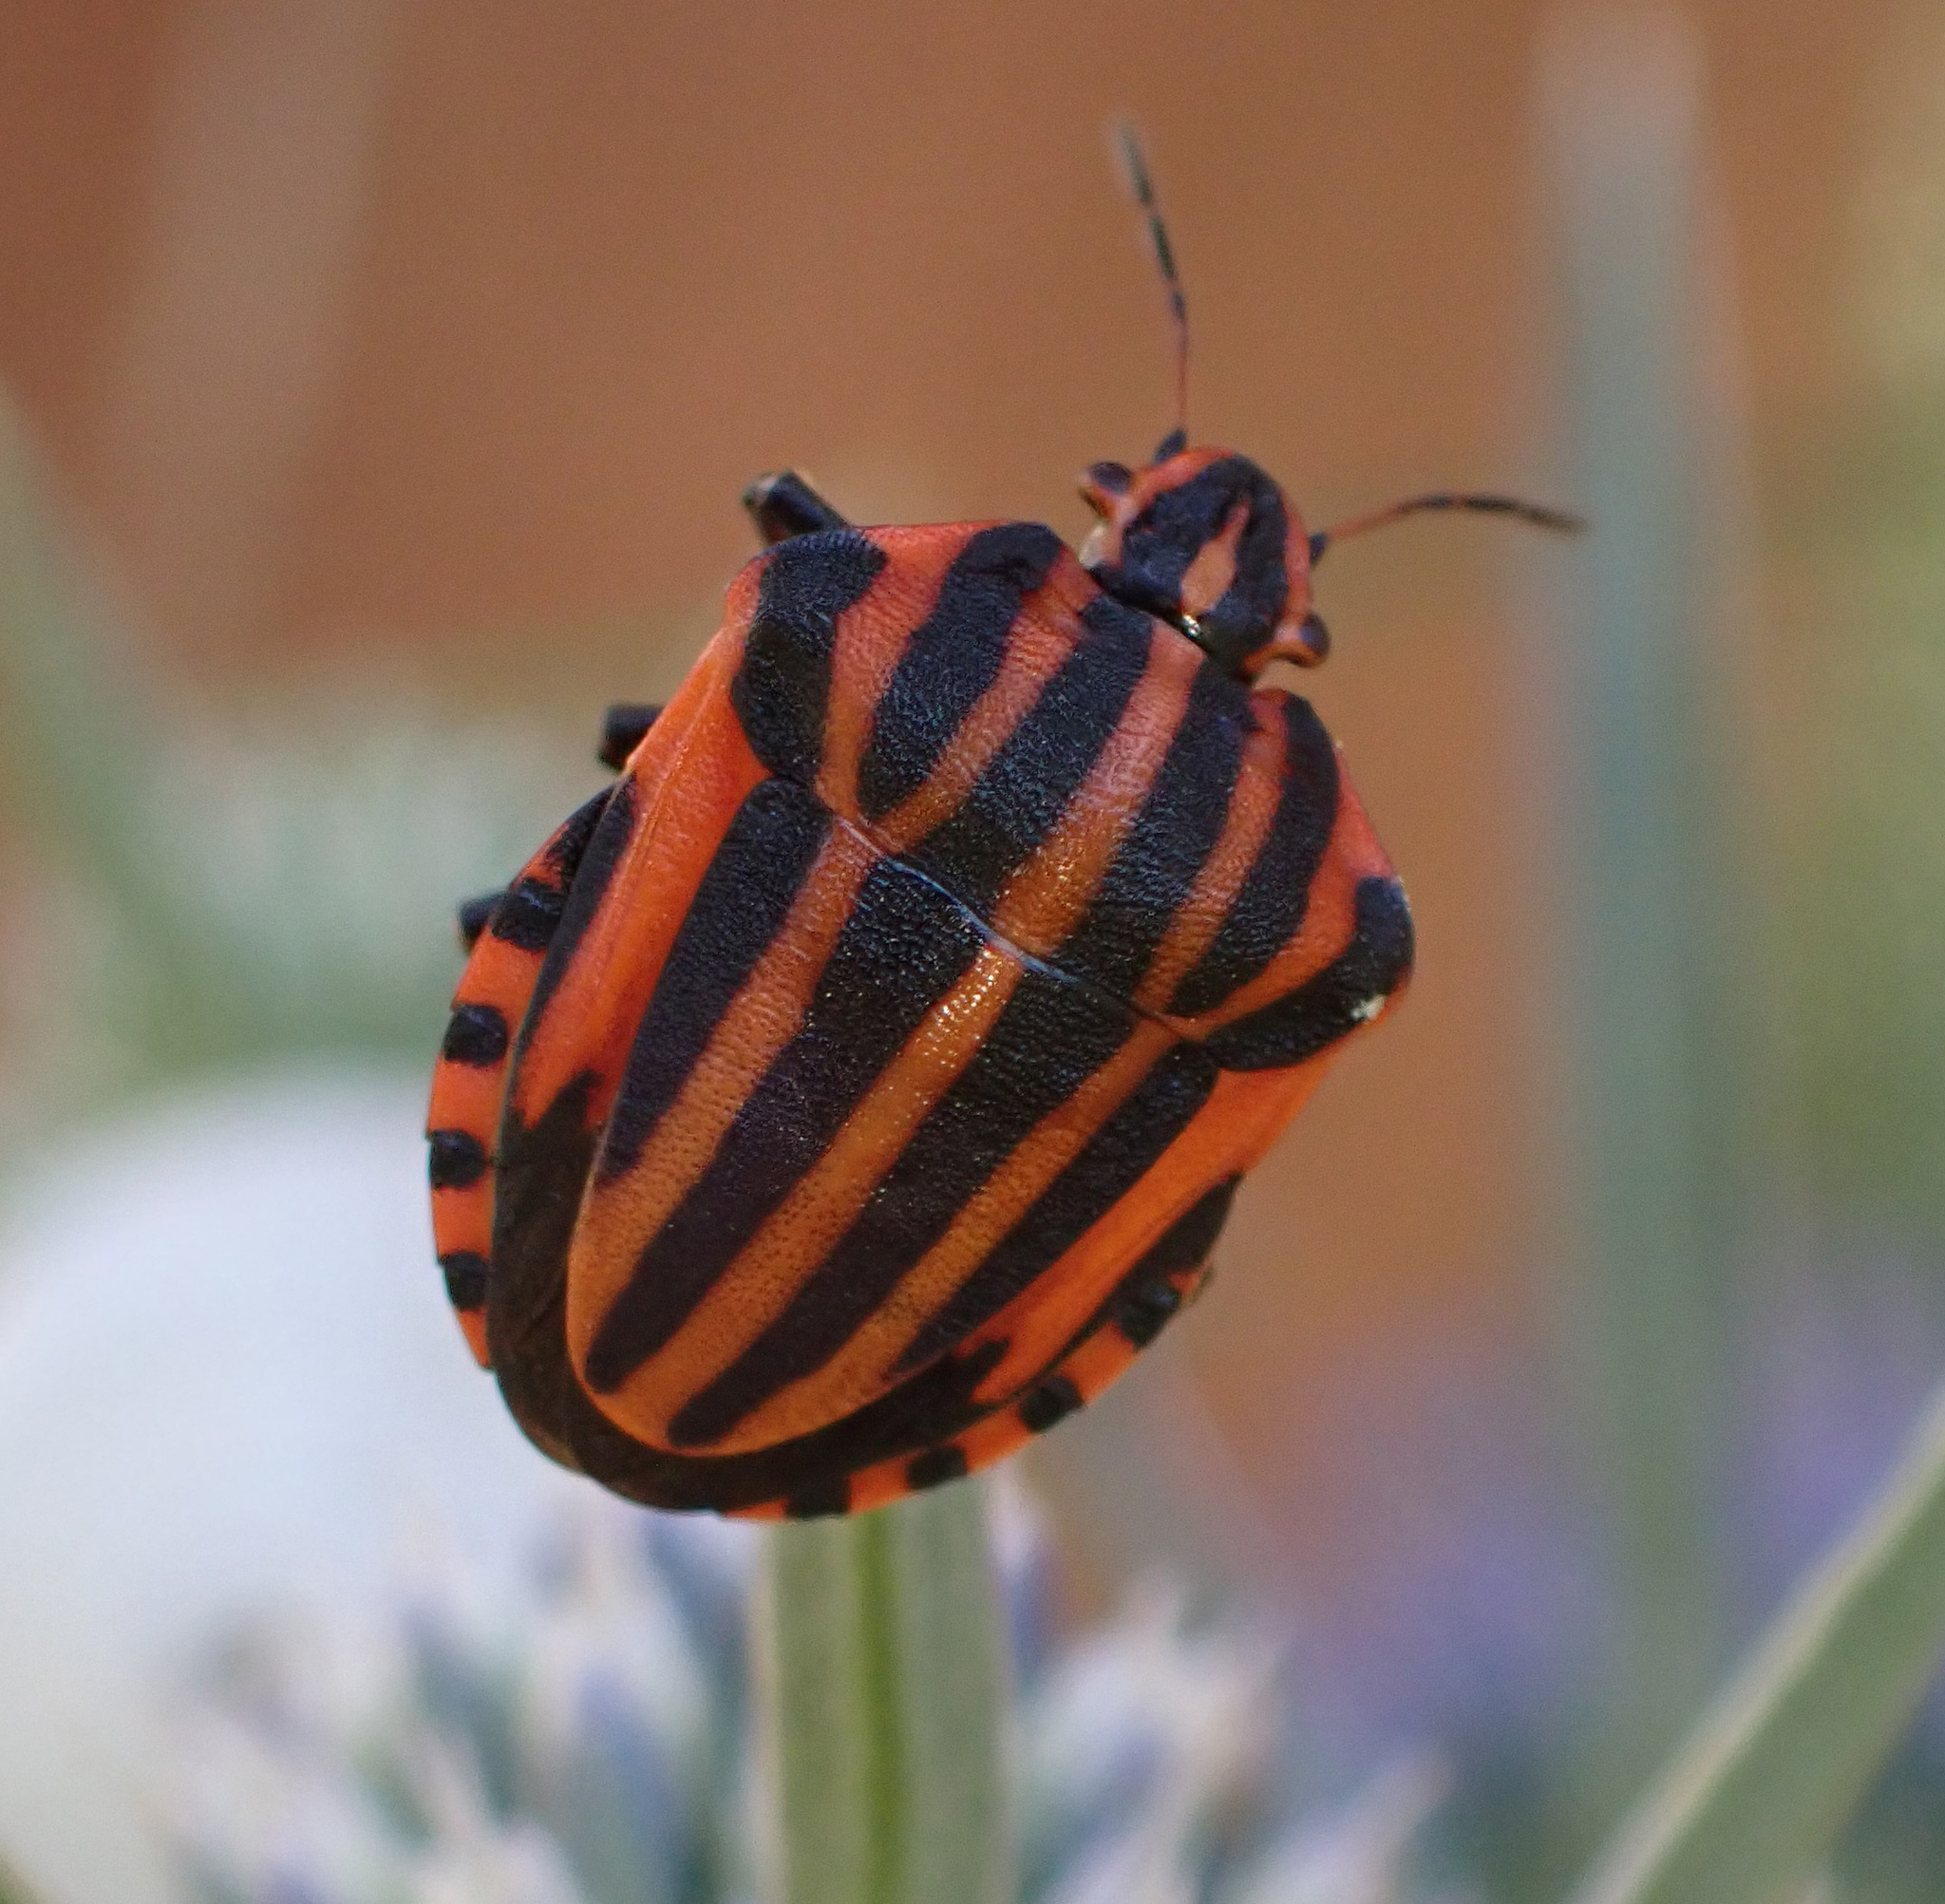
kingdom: Animalia
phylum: Arthropoda
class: Insecta
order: Hemiptera
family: Pentatomidae
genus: Graphosoma
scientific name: Graphosoma italicum
